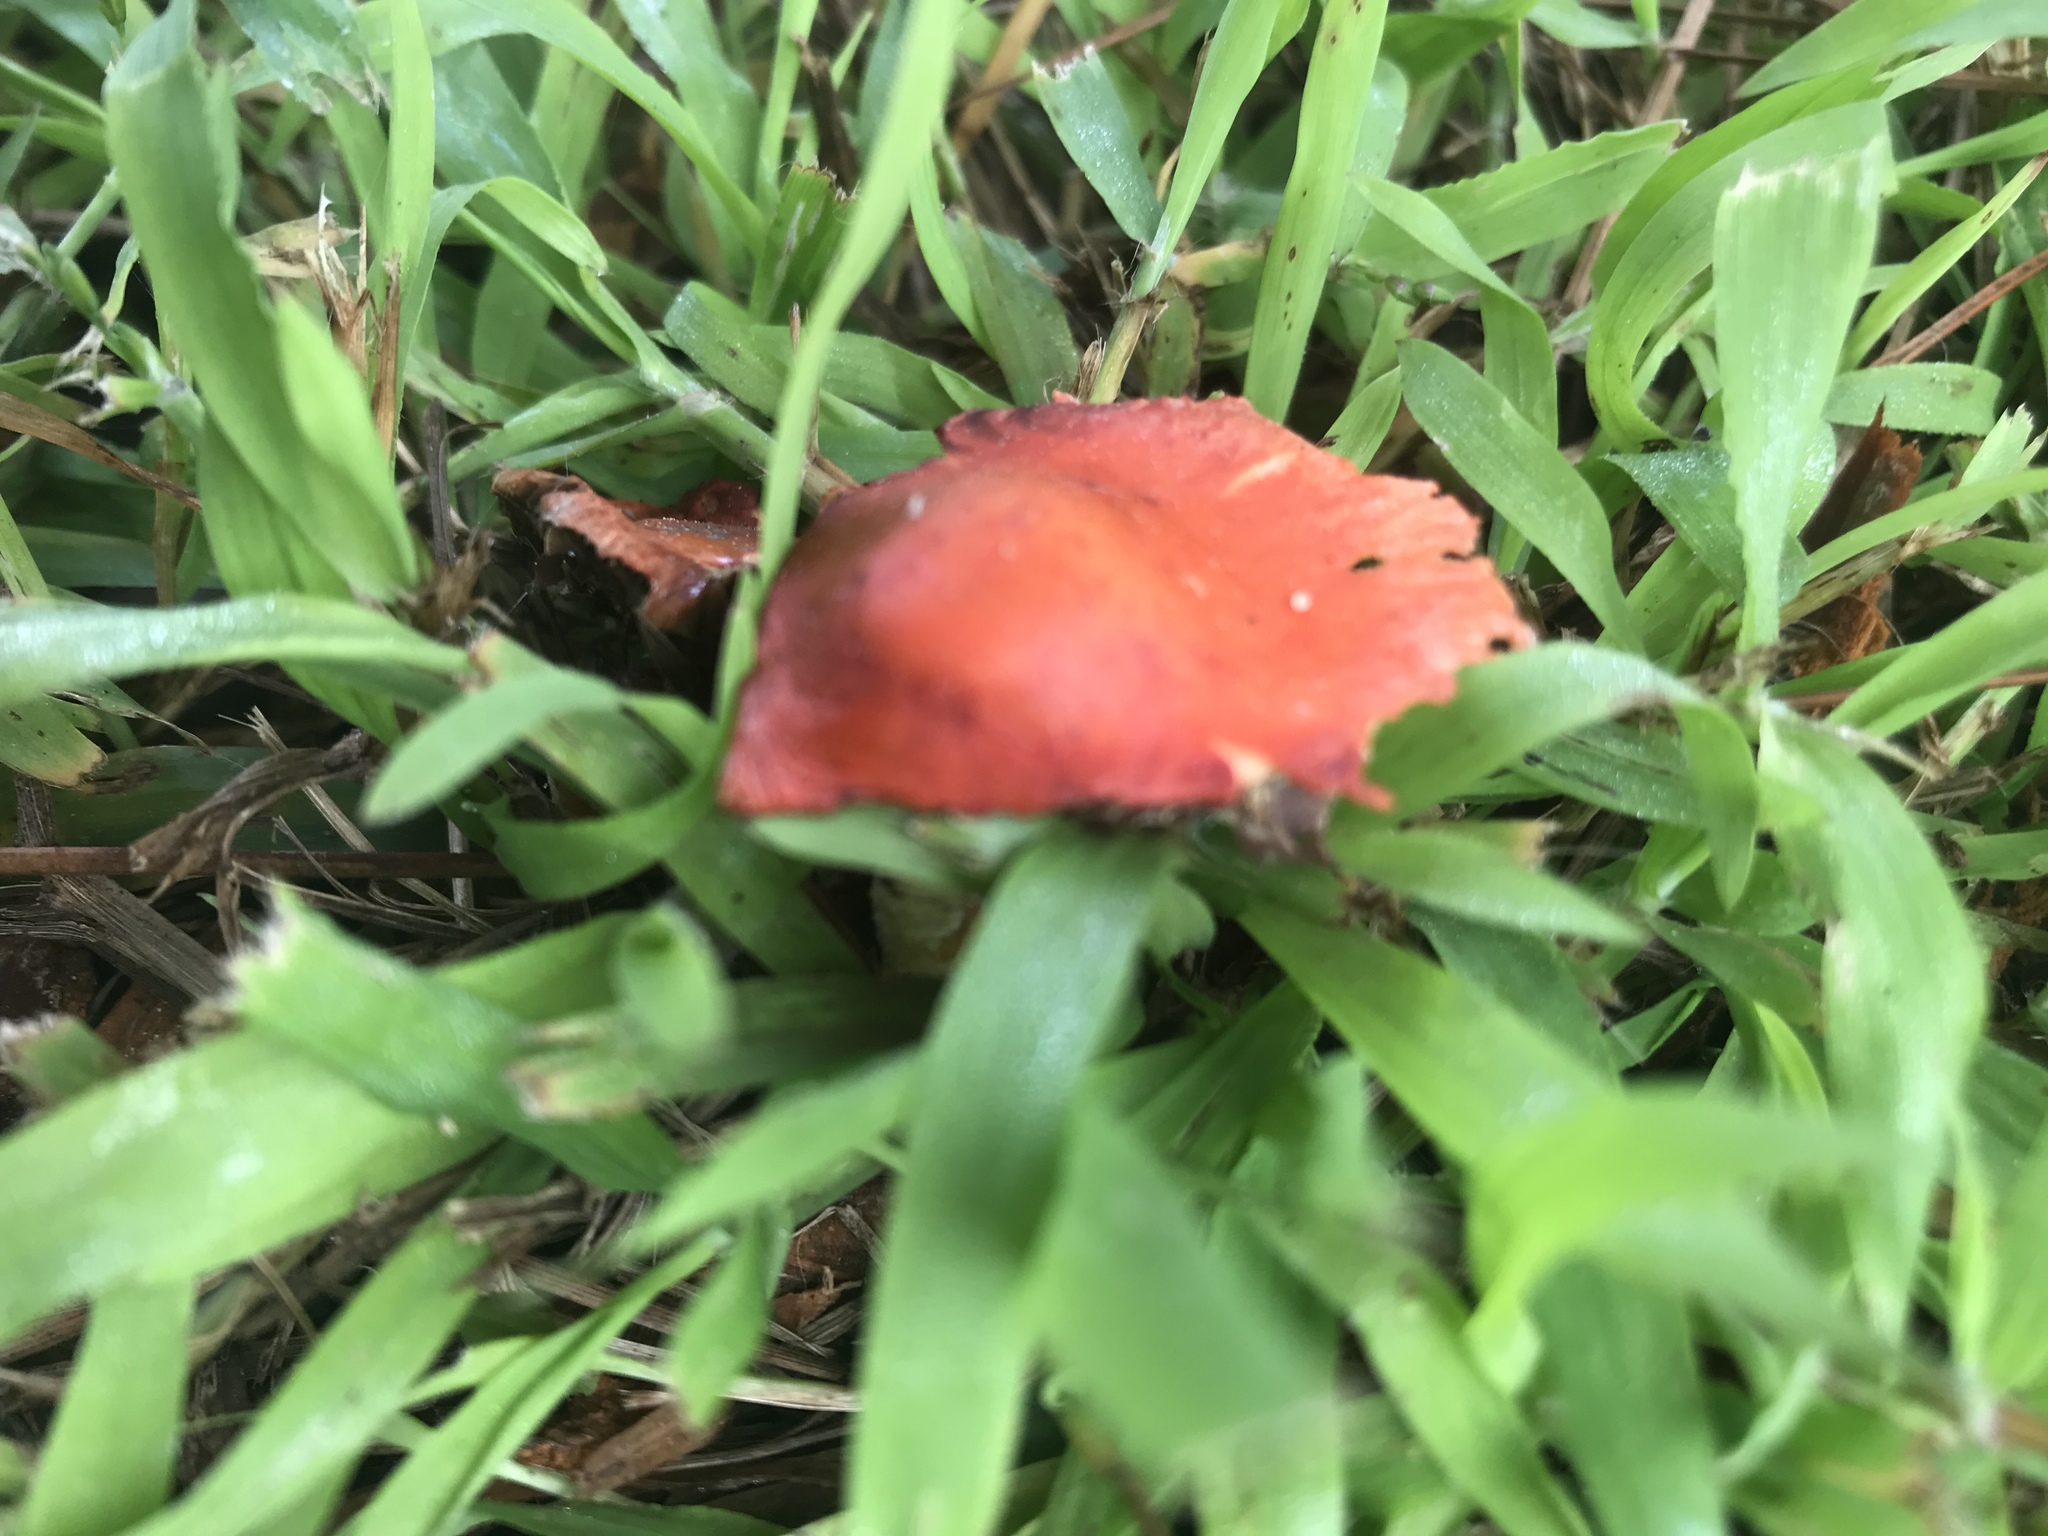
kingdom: Fungi
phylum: Basidiomycota
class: Agaricomycetes
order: Agaricales
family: Strophariaceae
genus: Leratiomyces
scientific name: Leratiomyces ceres
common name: Redlead roundhead
